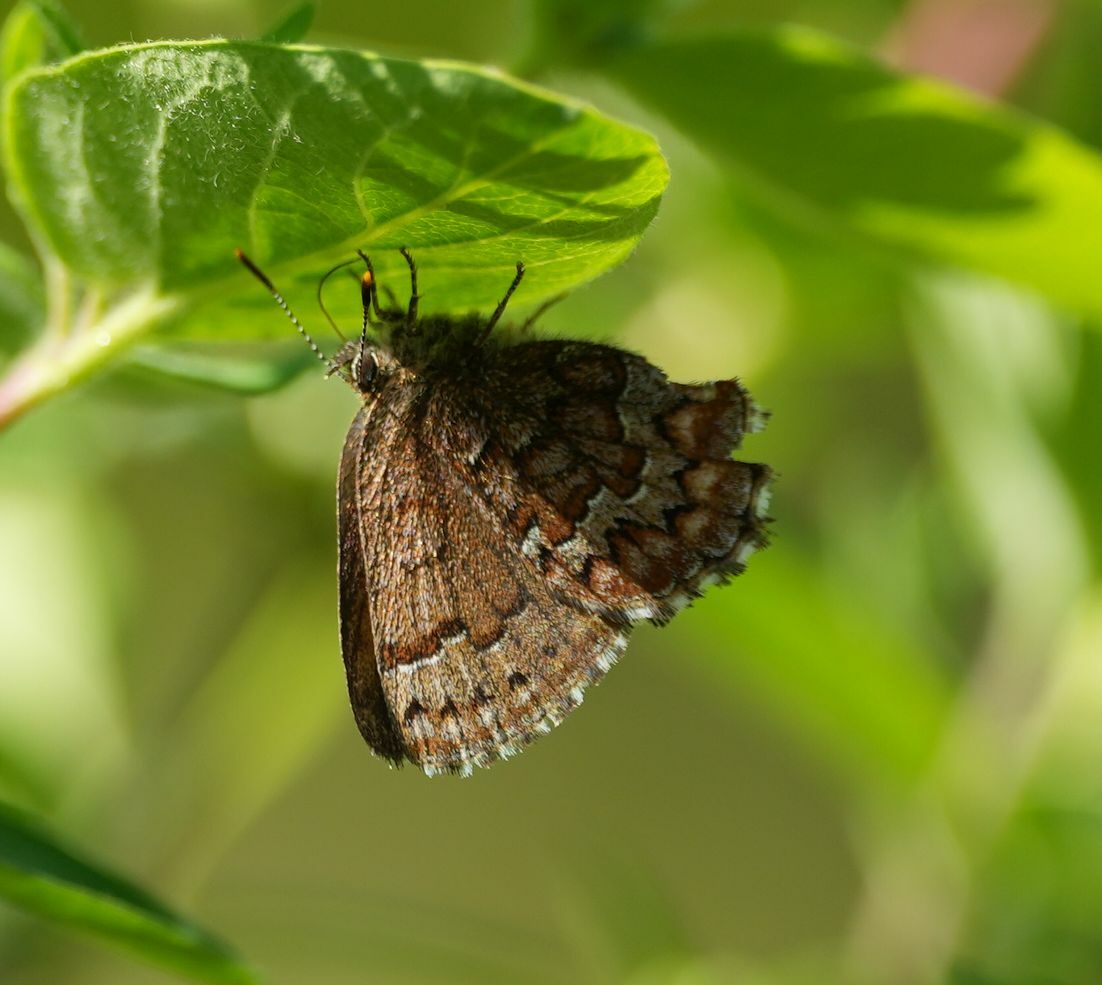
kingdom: Animalia
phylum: Arthropoda
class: Insecta
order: Lepidoptera
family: Lycaenidae
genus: Incisalia
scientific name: Incisalia niphon
